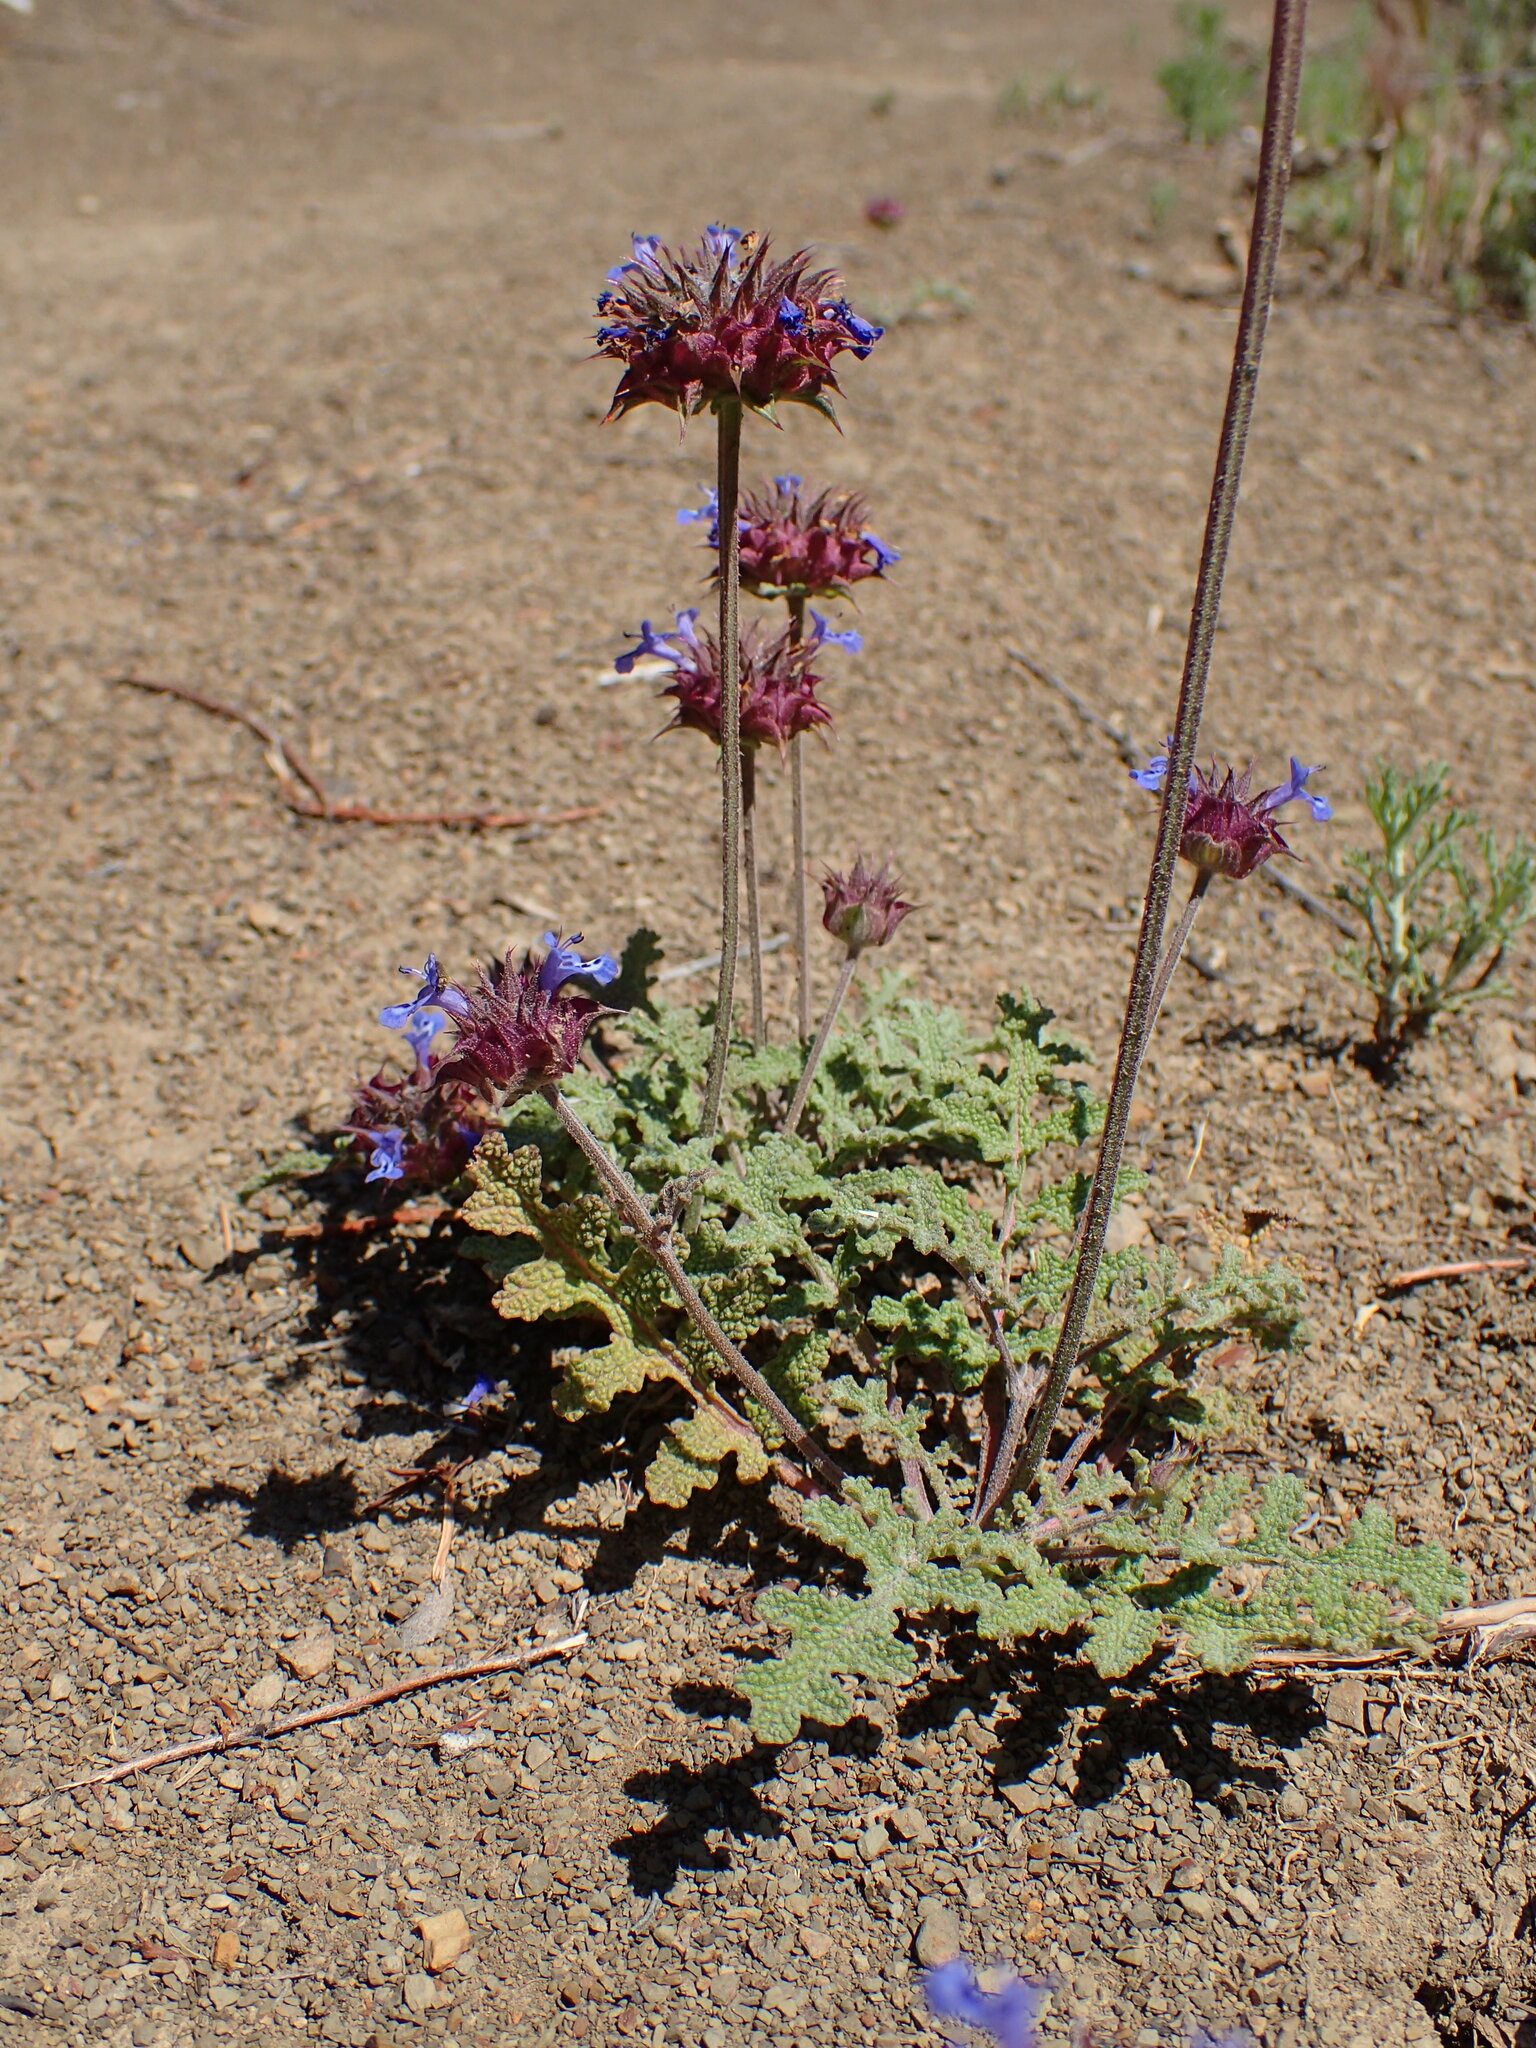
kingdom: Plantae
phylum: Tracheophyta
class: Magnoliopsida
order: Lamiales
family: Lamiaceae
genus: Salvia
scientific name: Salvia columbariae
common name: Chia
